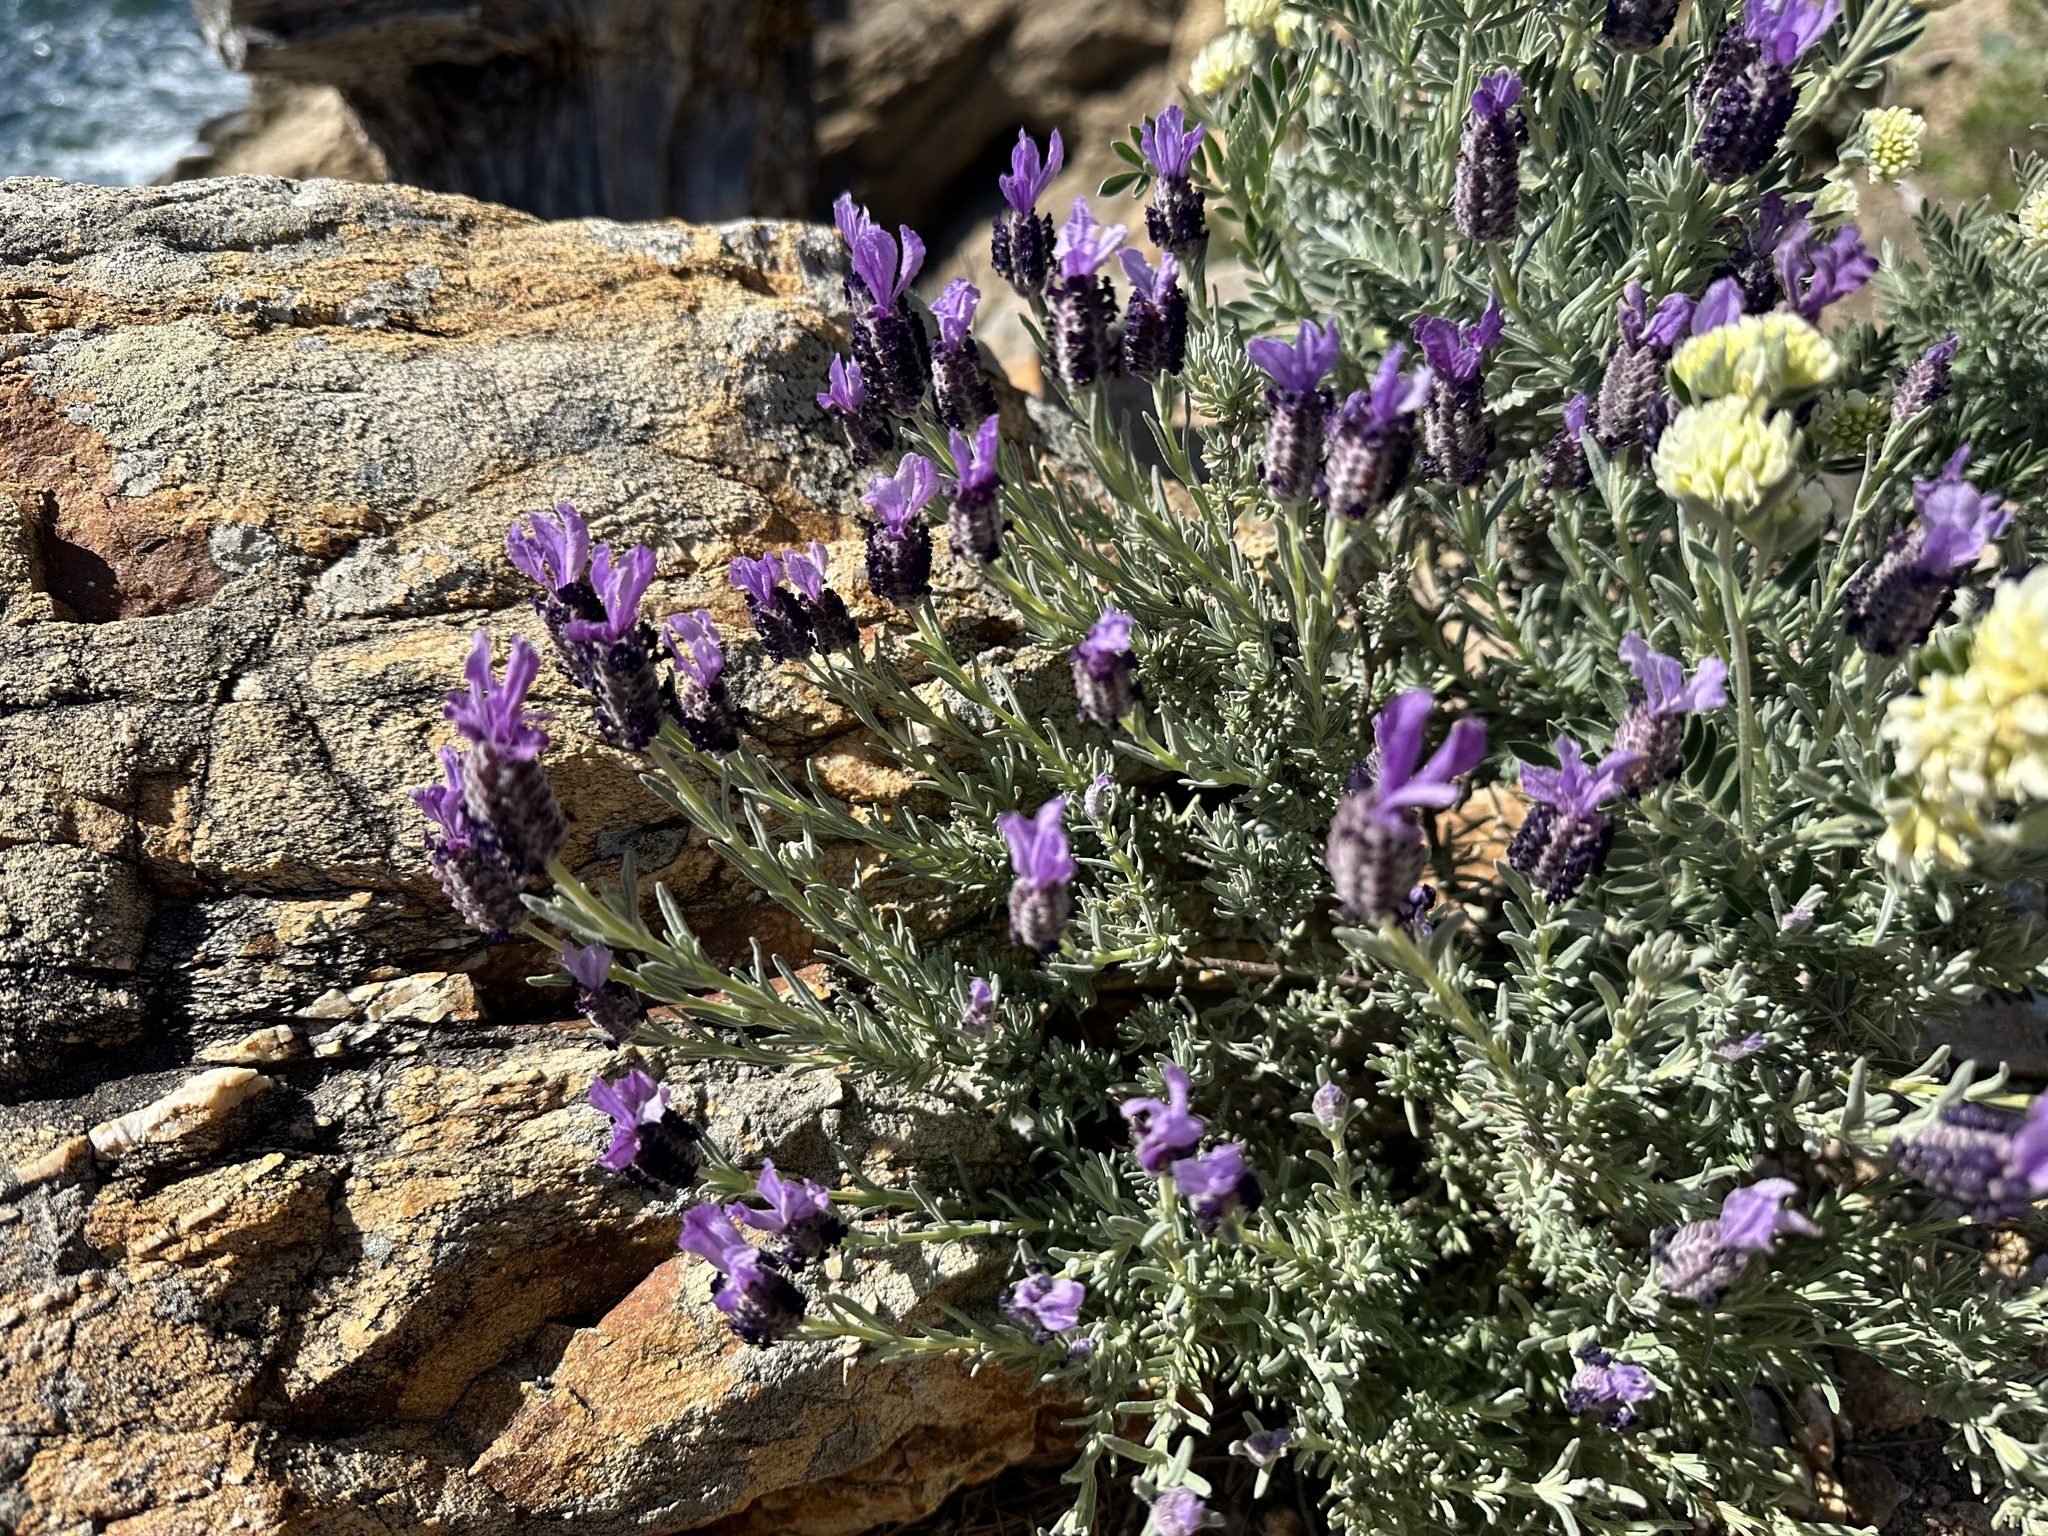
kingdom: Plantae
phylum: Tracheophyta
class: Magnoliopsida
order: Lamiales
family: Lamiaceae
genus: Lavandula
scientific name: Lavandula stoechas
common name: French lavender
